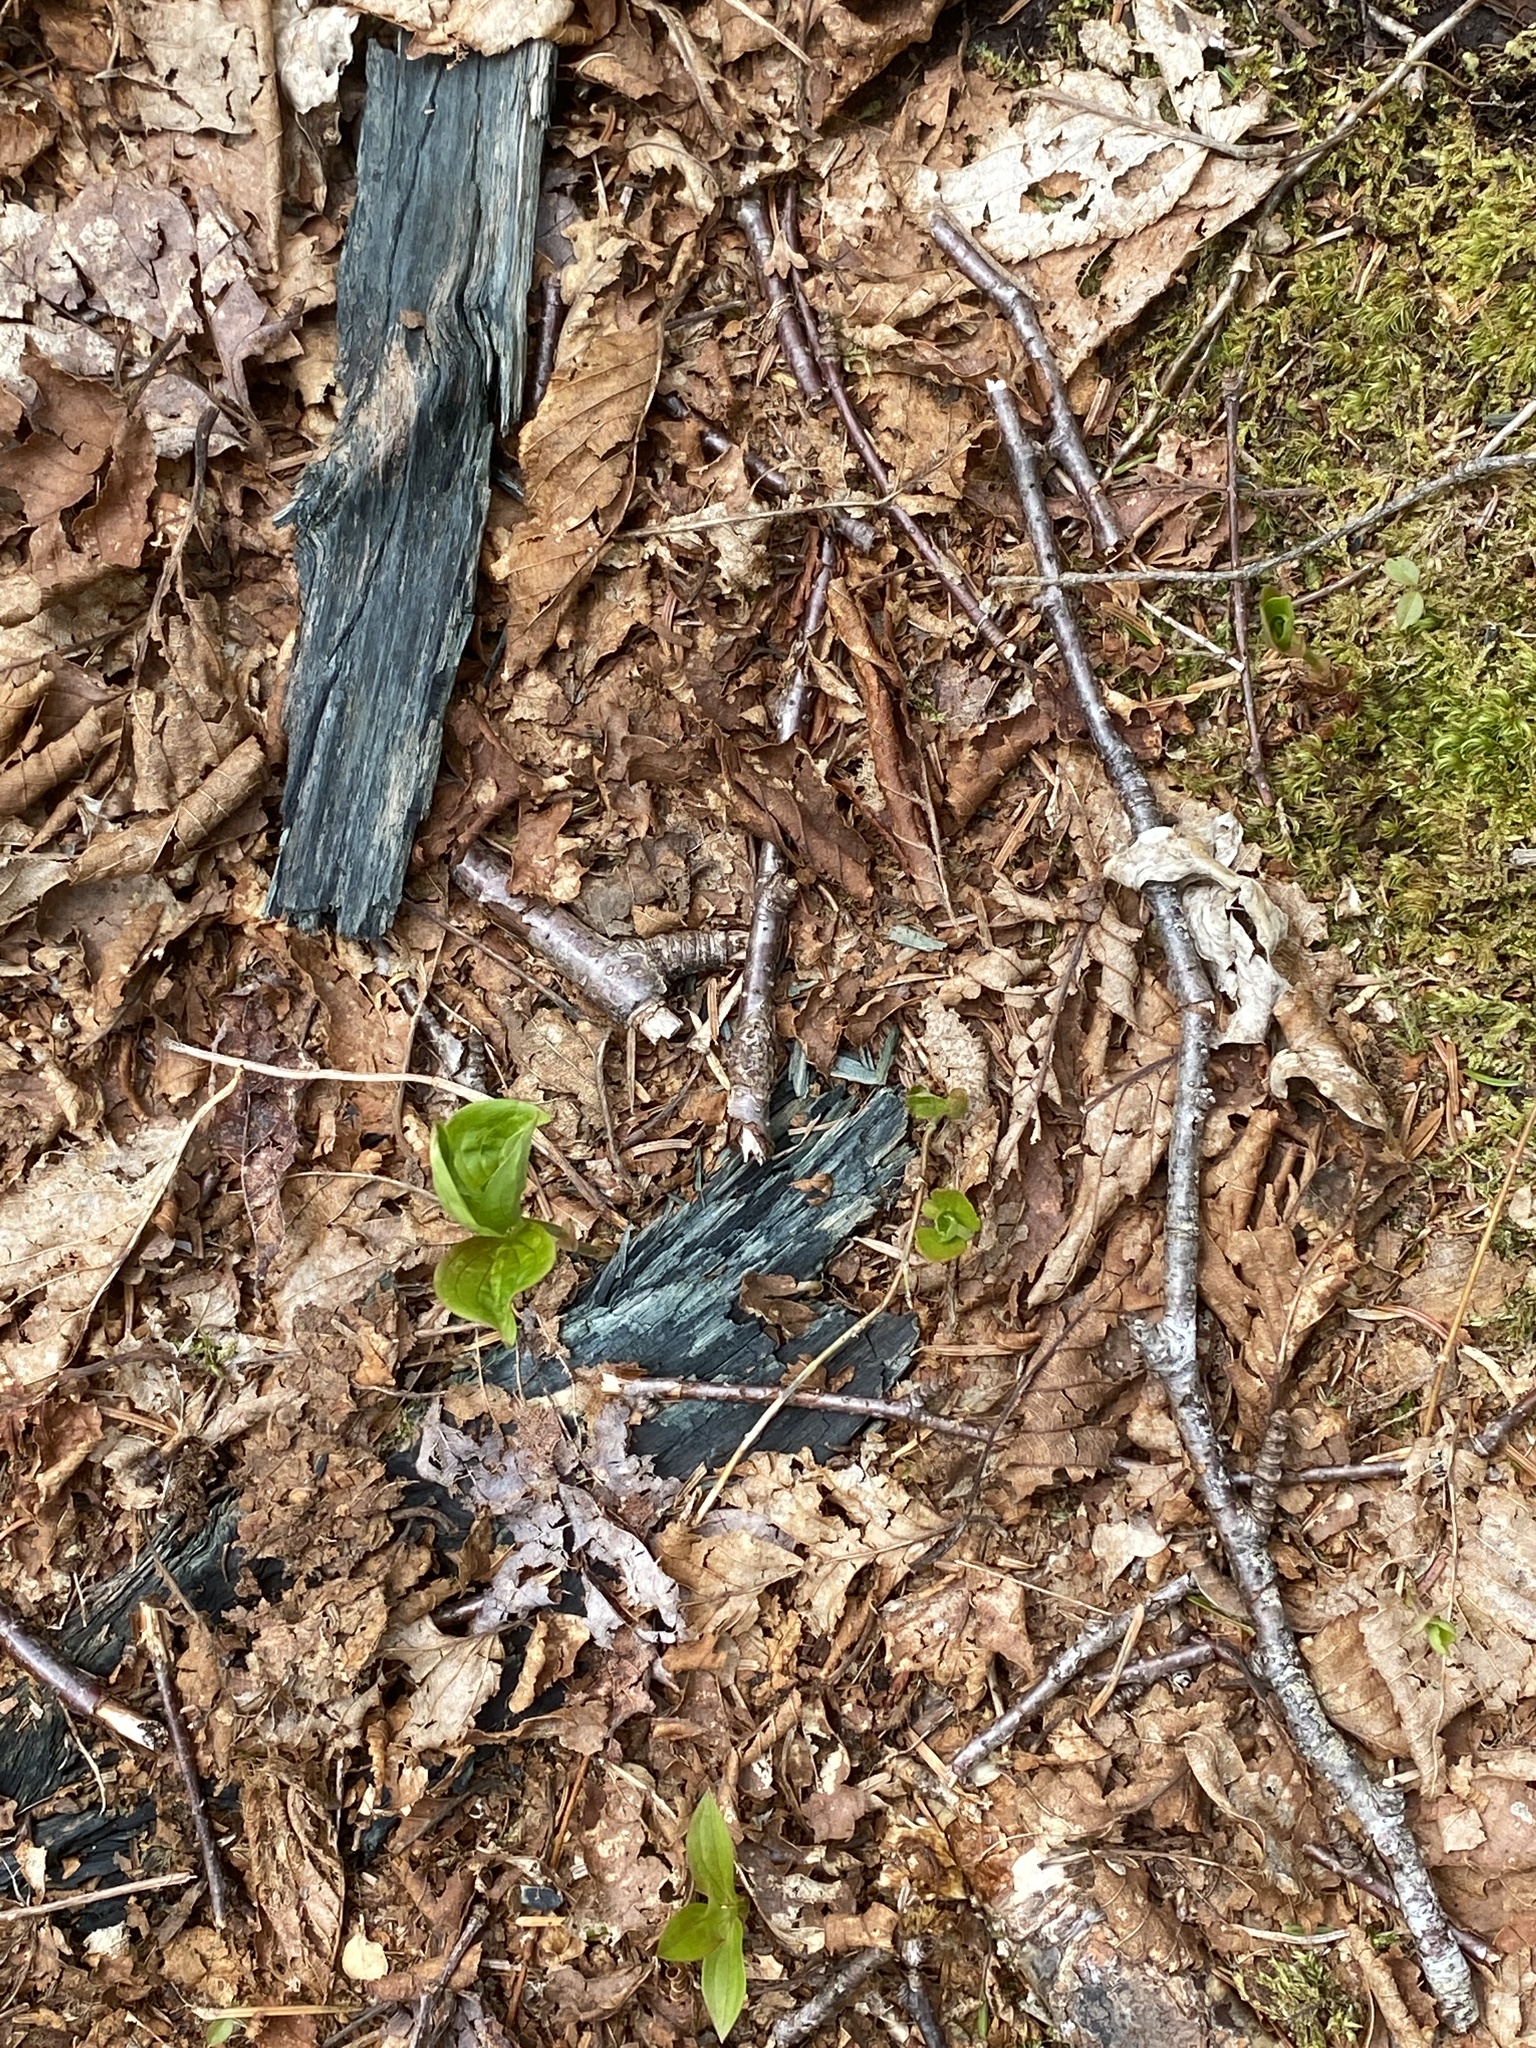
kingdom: Fungi
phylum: Ascomycota
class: Leotiomycetes
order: Helotiales
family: Chlorociboriaceae
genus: Chlorociboria
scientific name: Chlorociboria
